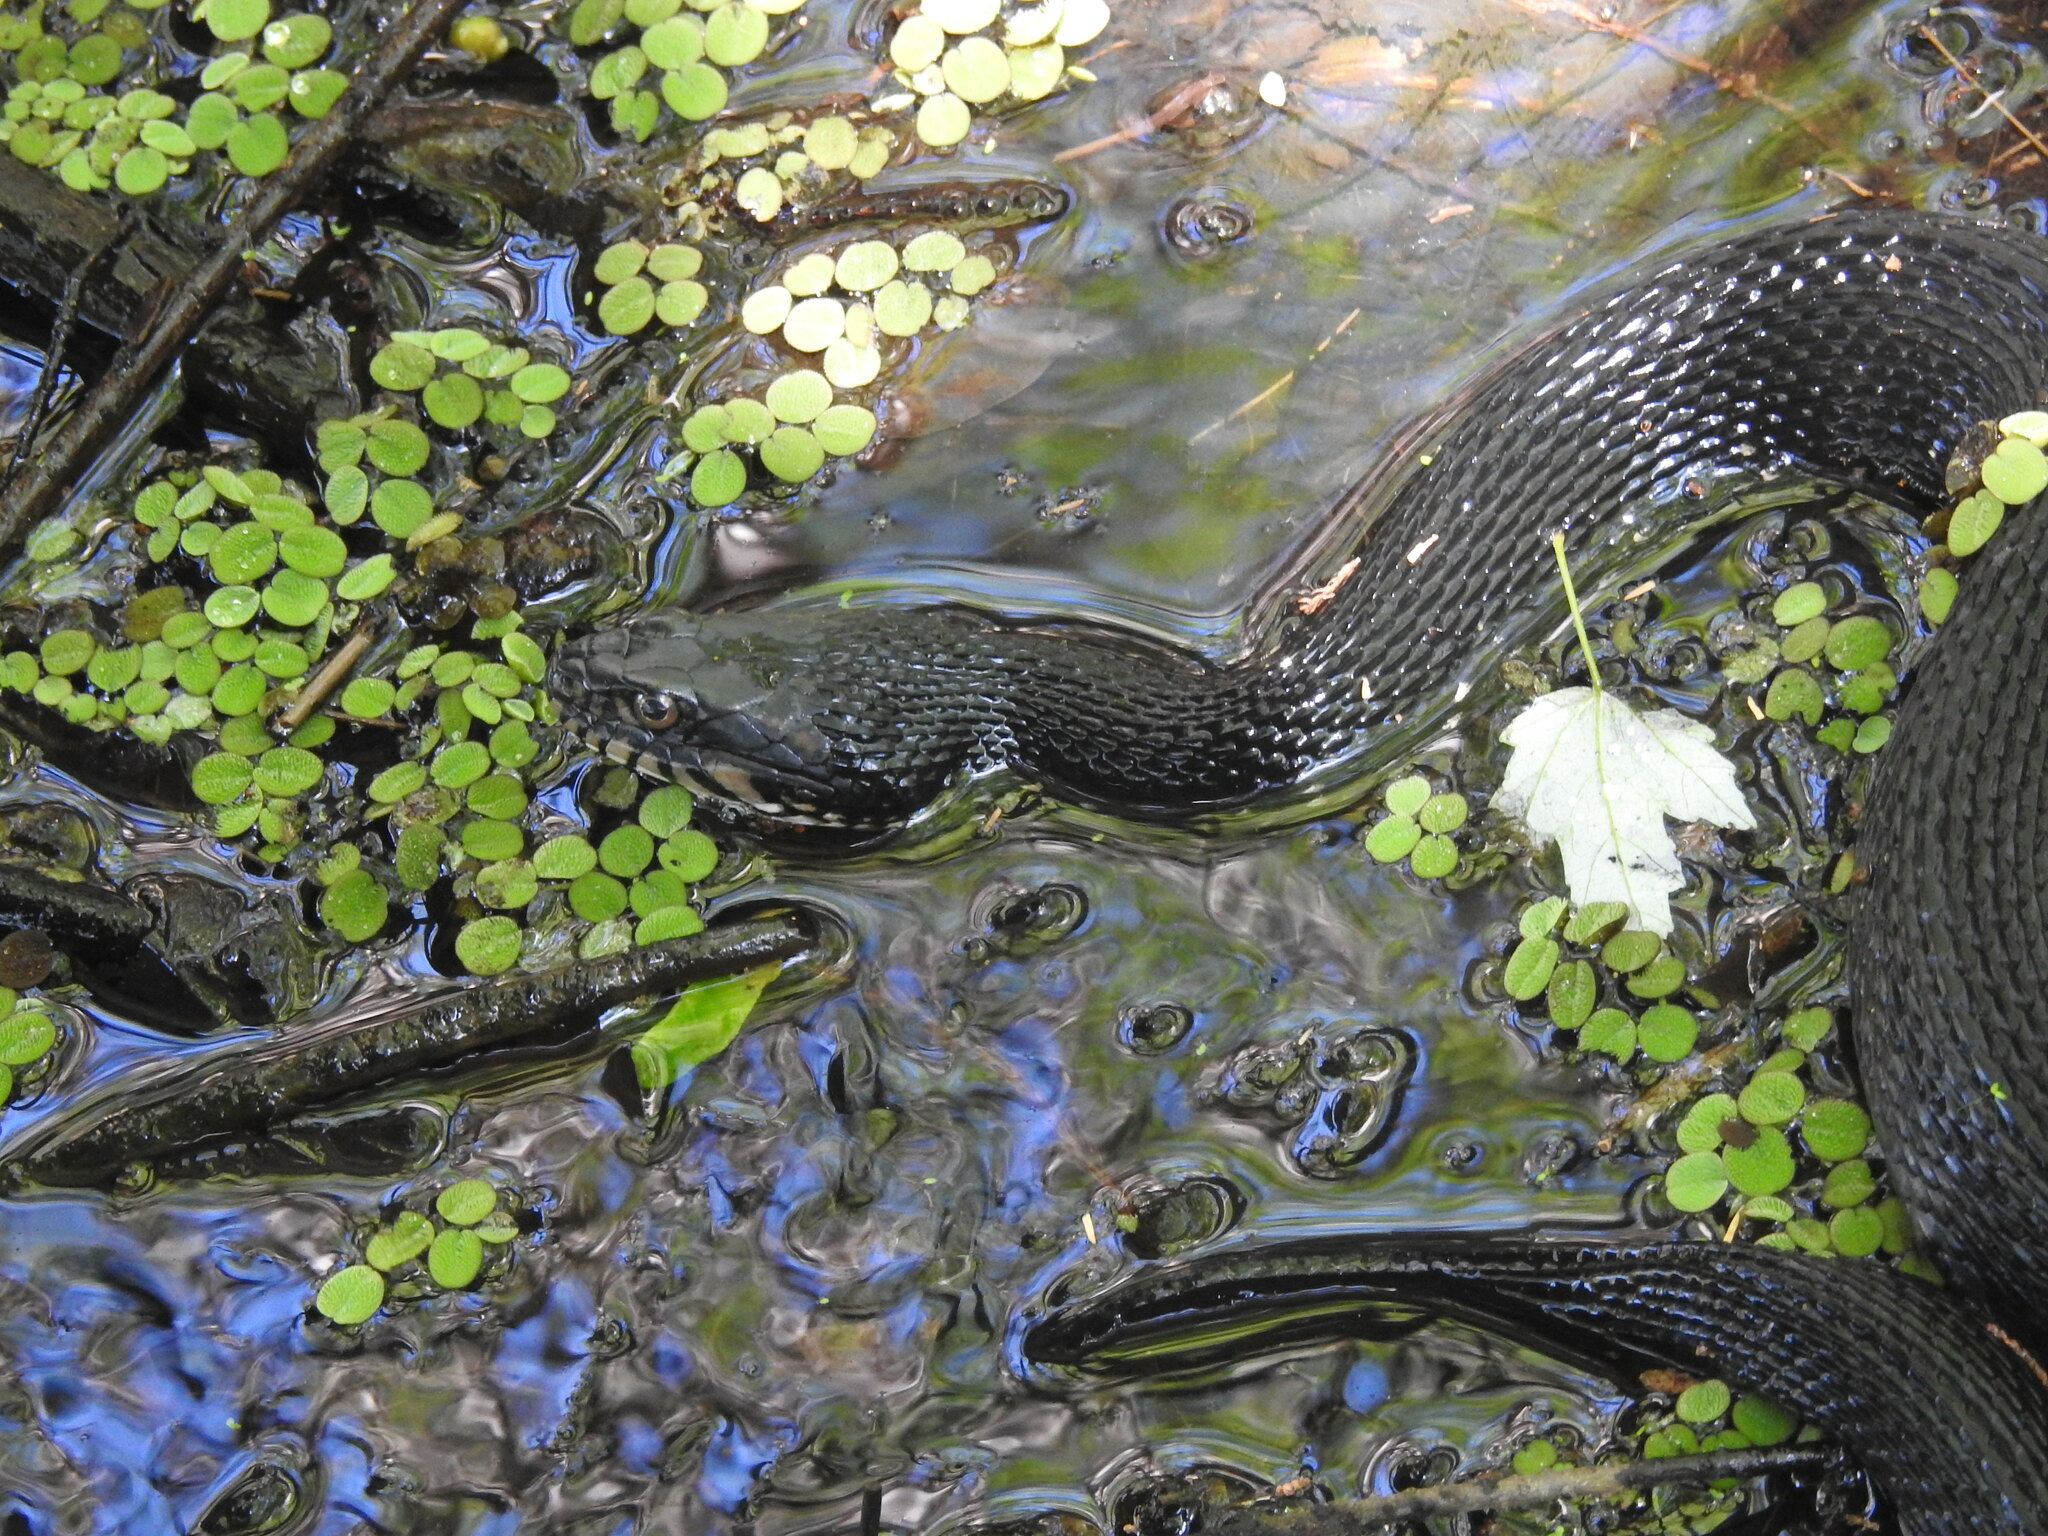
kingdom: Animalia
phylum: Chordata
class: Squamata
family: Colubridae
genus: Nerodia
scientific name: Nerodia fasciata
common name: Southern water snake
